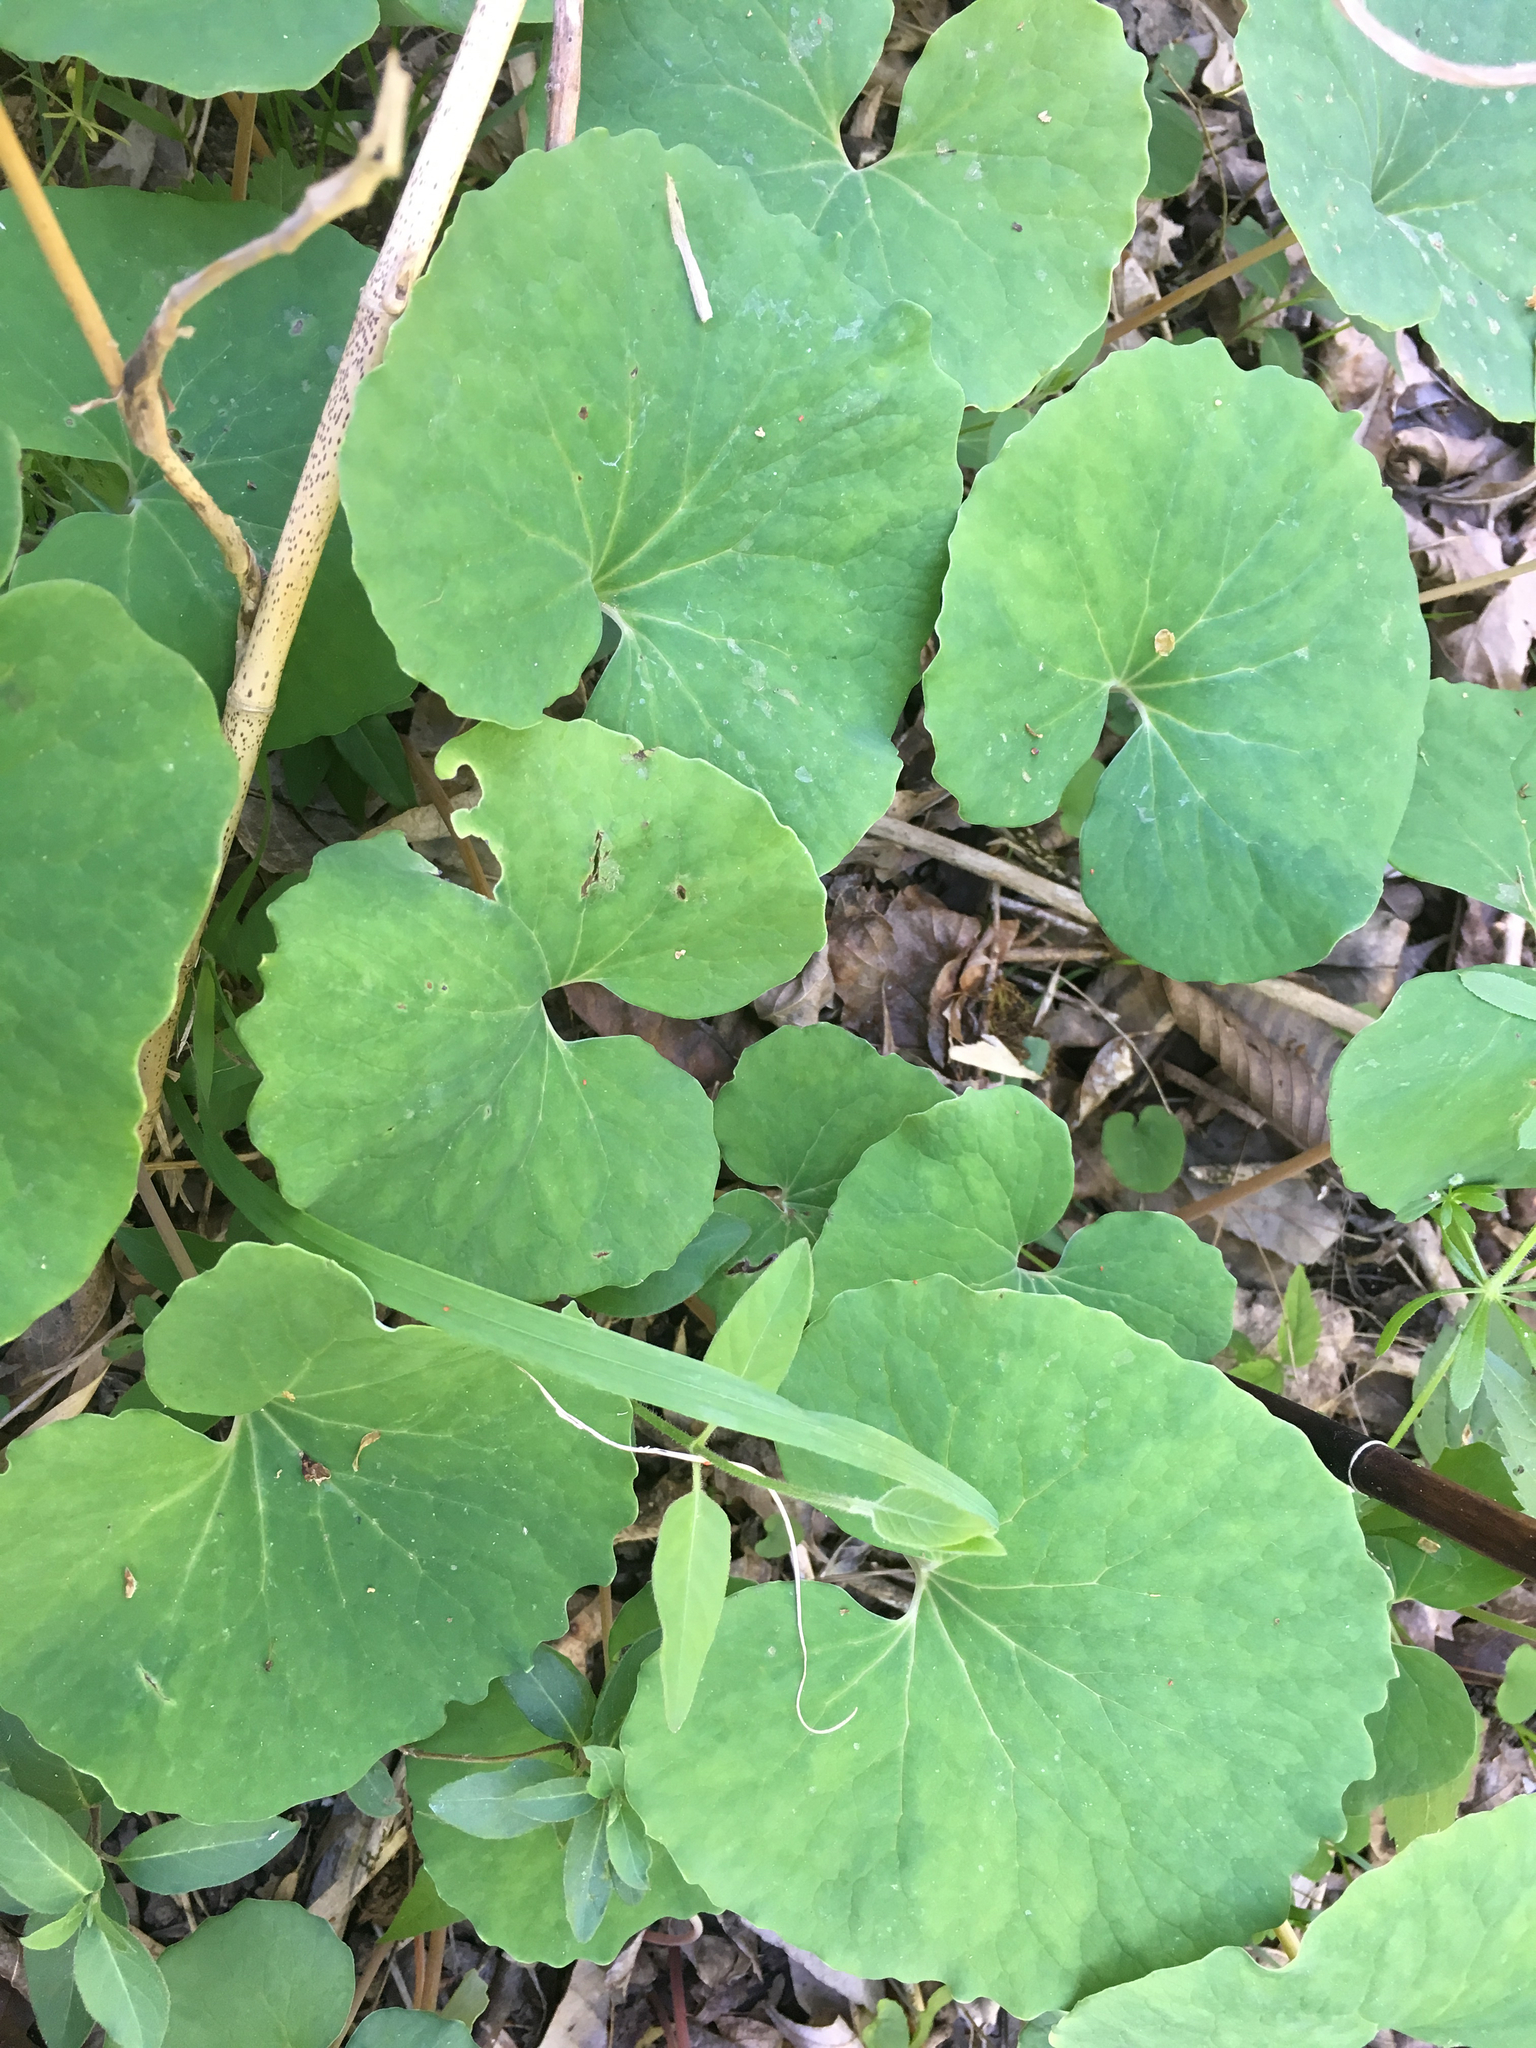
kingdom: Plantae
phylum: Tracheophyta
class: Magnoliopsida
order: Ranunculales
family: Papaveraceae
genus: Sanguinaria
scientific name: Sanguinaria canadensis
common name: Bloodroot
